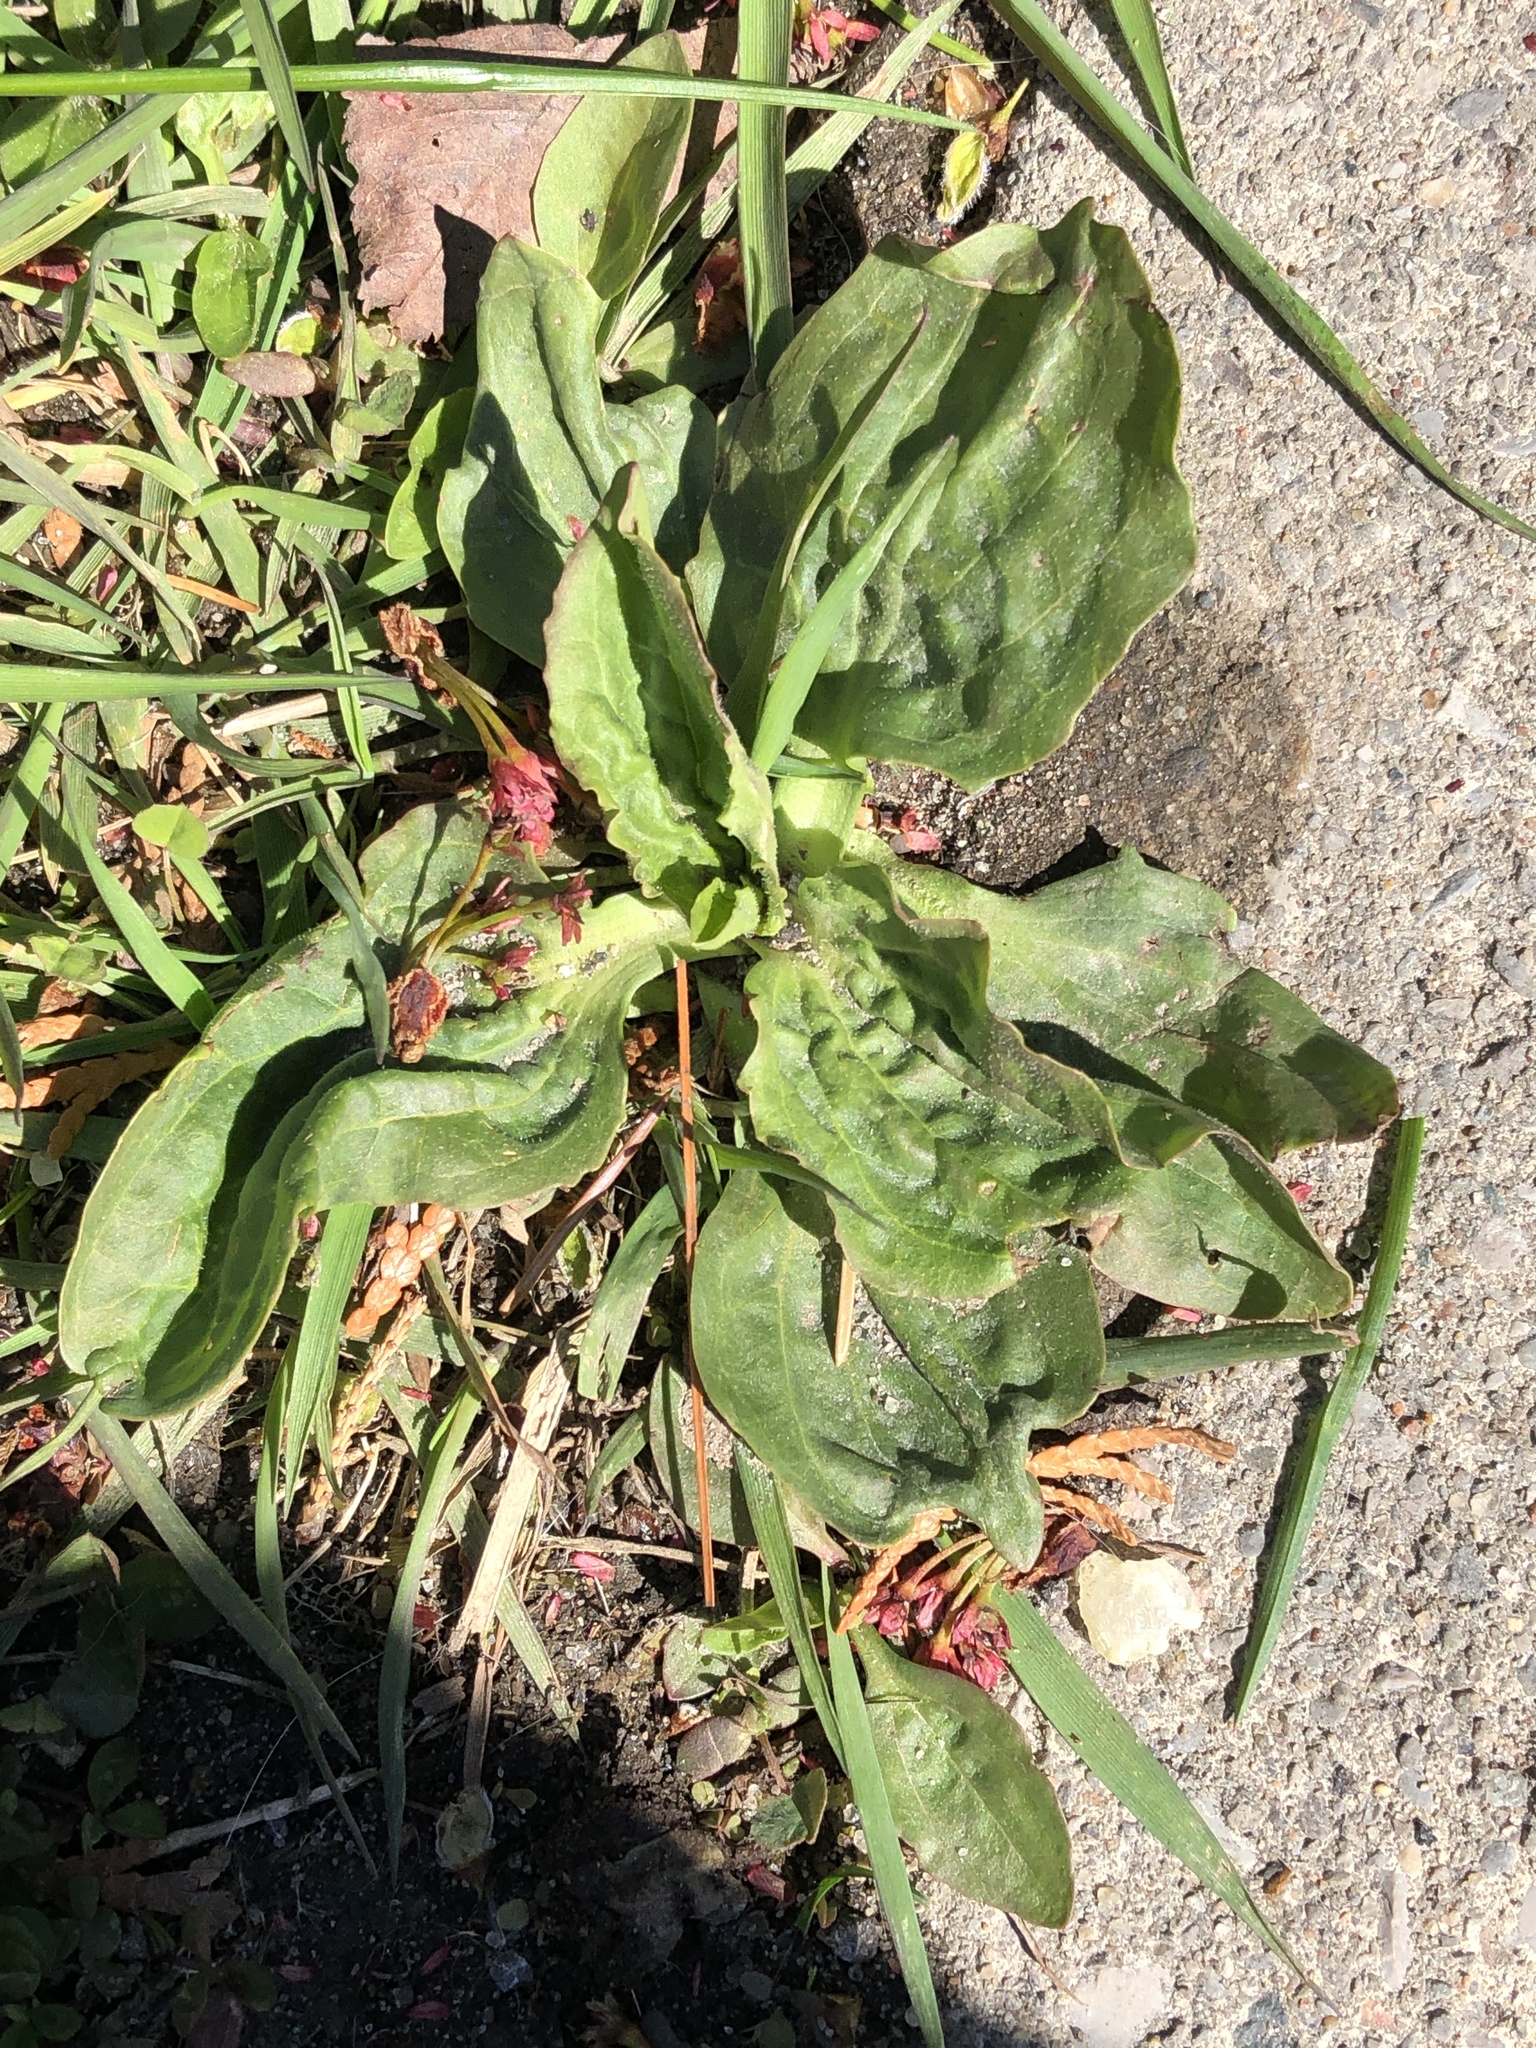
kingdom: Plantae
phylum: Tracheophyta
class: Magnoliopsida
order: Lamiales
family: Plantaginaceae
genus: Plantago
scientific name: Plantago major
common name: Common plantain
